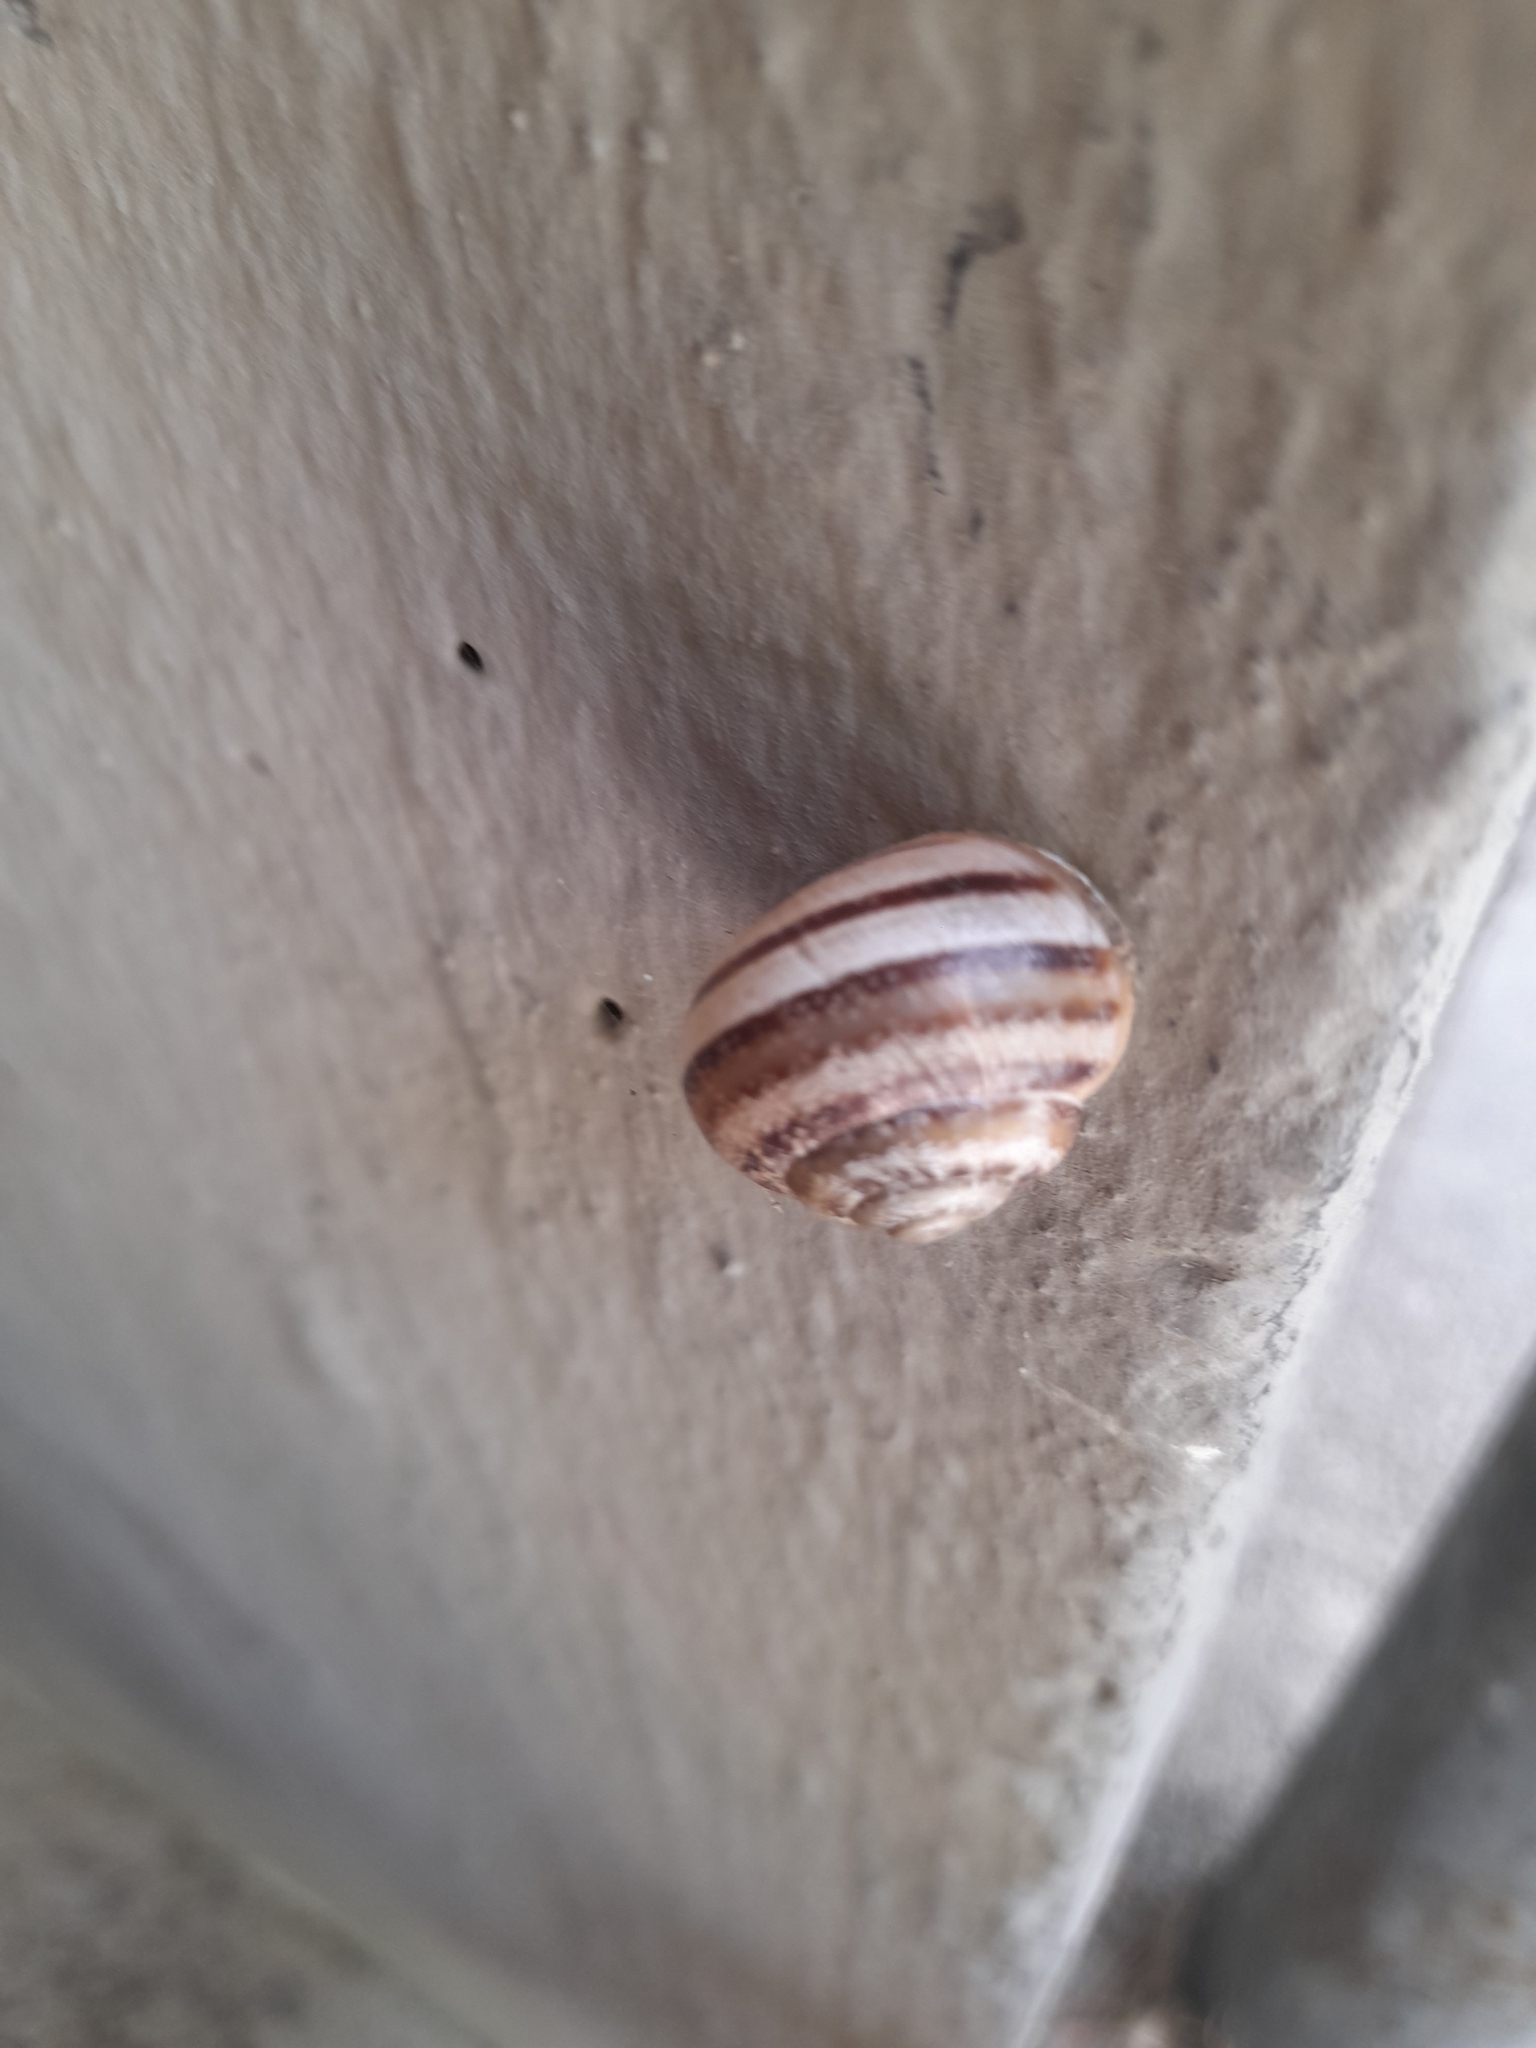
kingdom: Animalia
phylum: Mollusca
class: Gastropoda
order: Stylommatophora
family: Helicidae
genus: Eobania
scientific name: Eobania vermiculata
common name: Chocolateband snail
